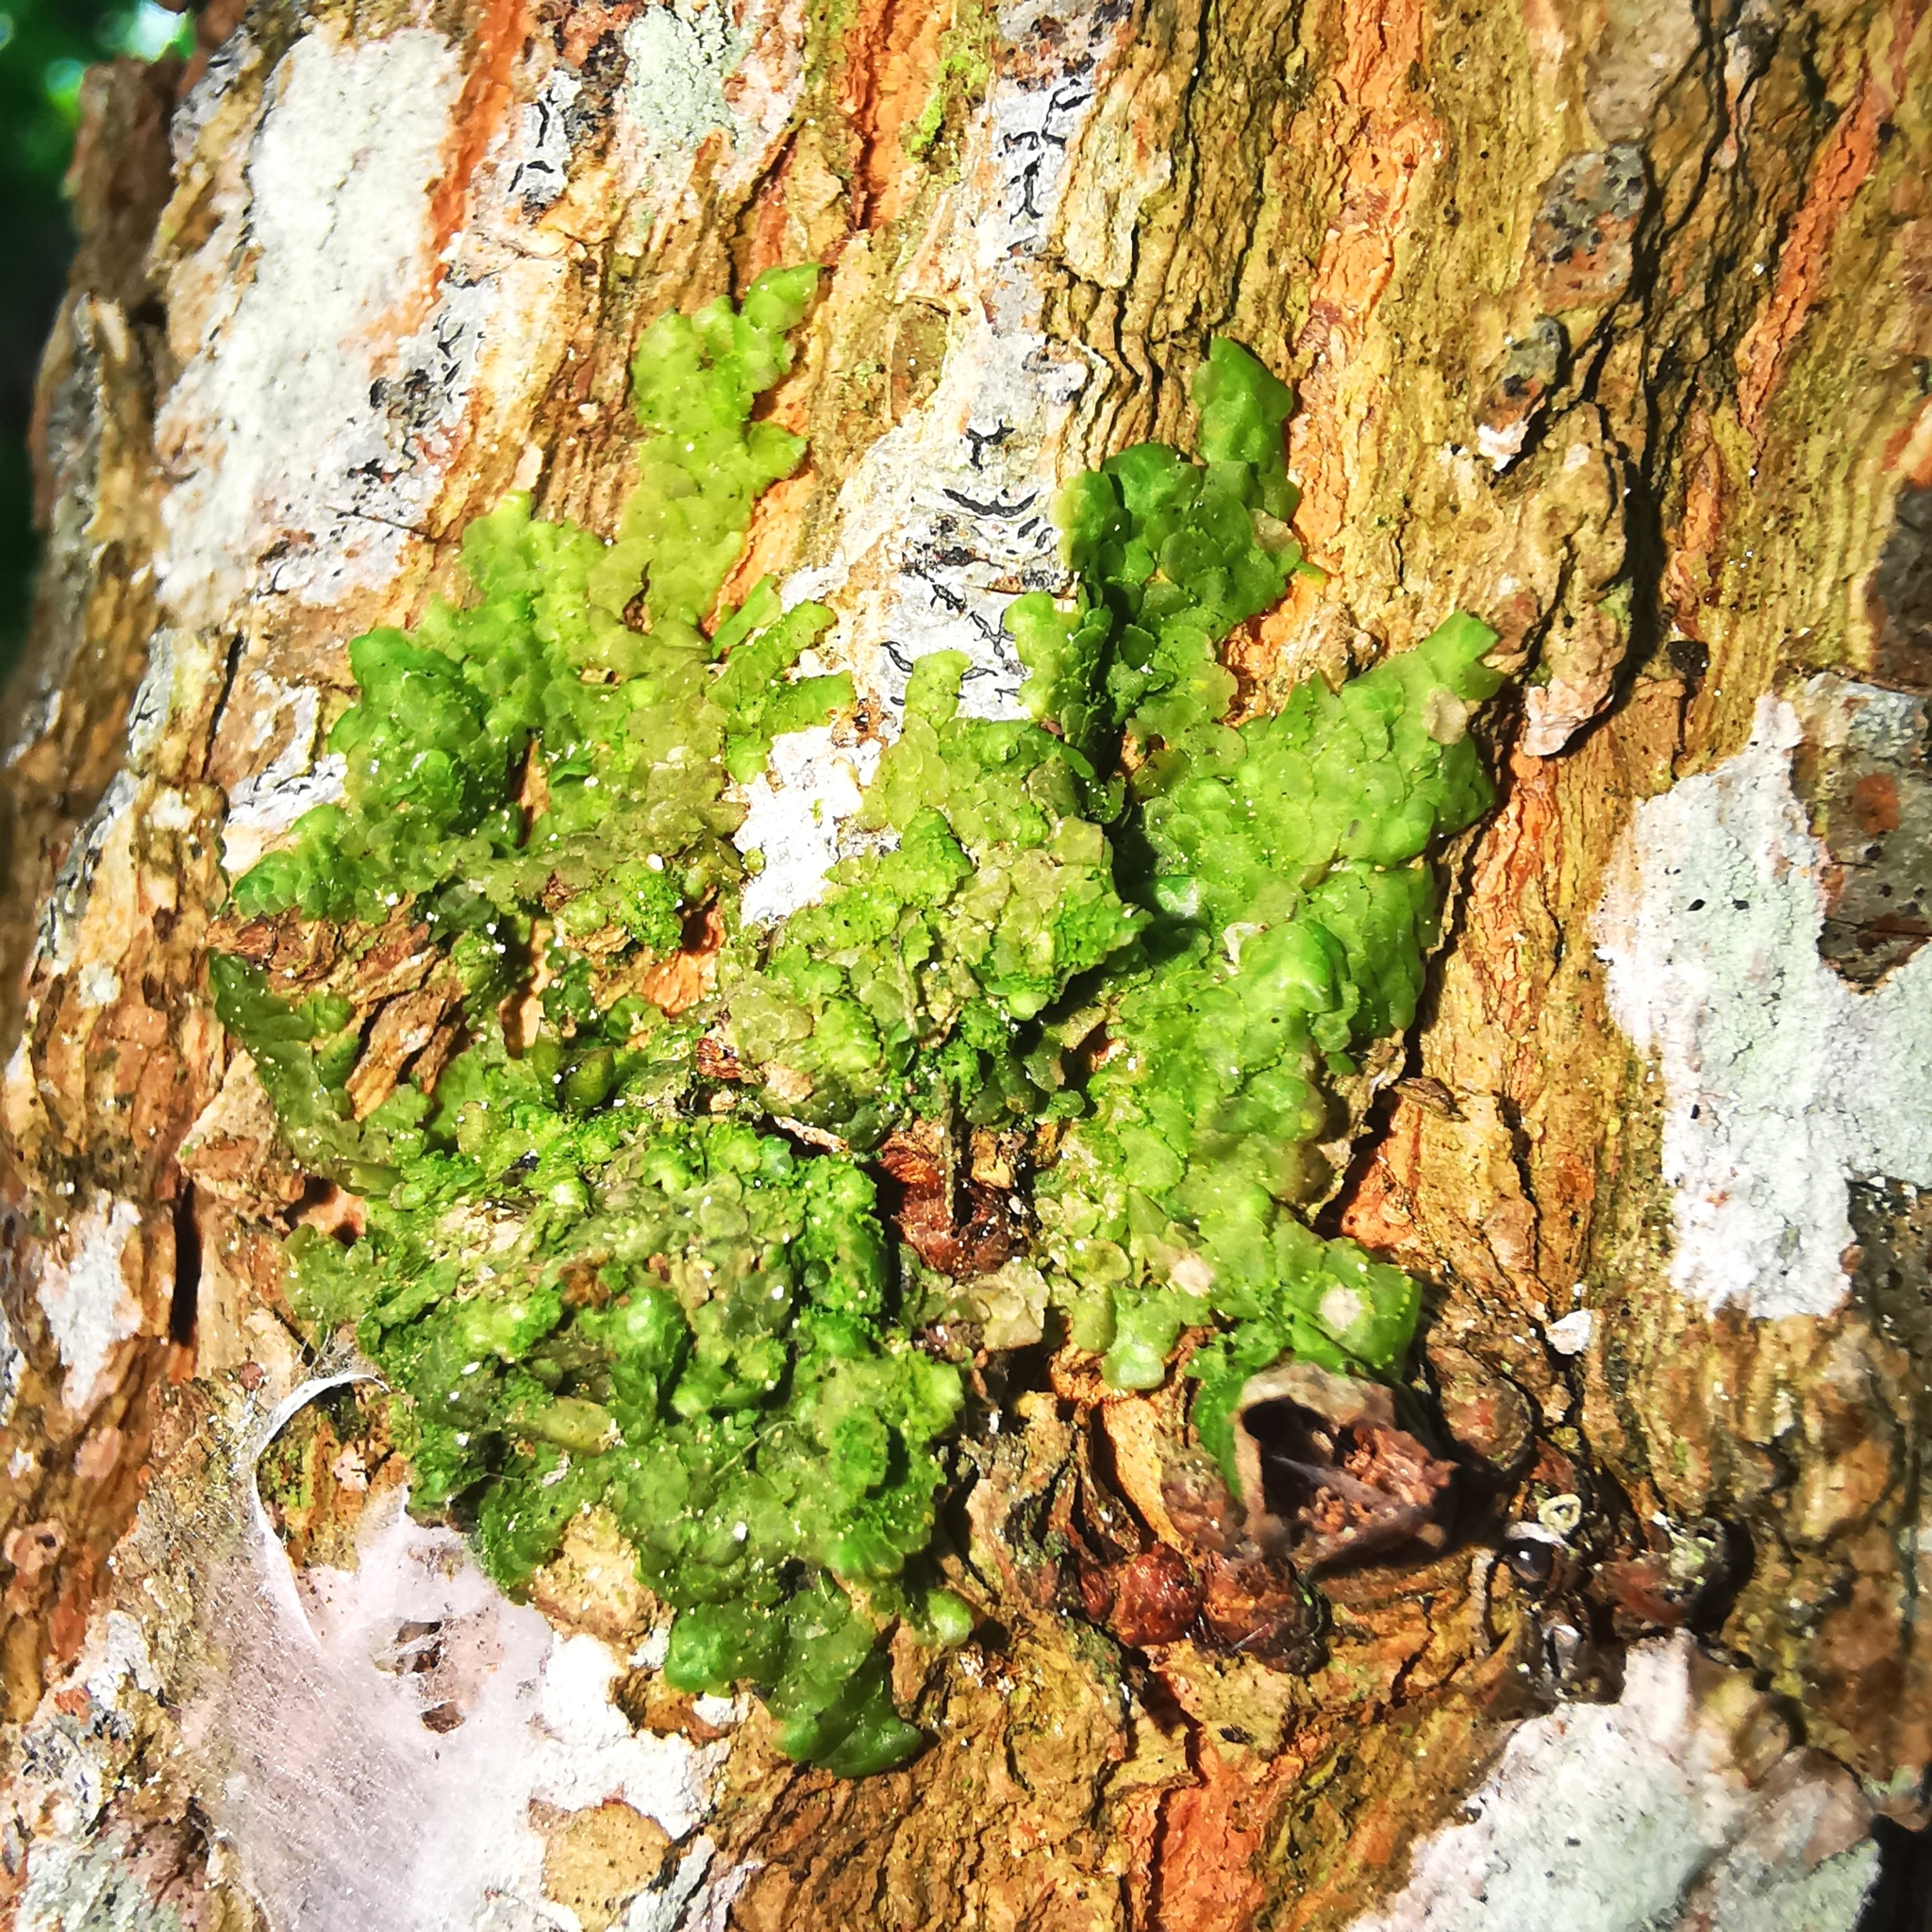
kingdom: Plantae
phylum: Marchantiophyta
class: Jungermanniopsida
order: Porellales
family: Radulaceae
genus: Radula
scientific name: Radula complanata
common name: Flat-leaved scalewort
